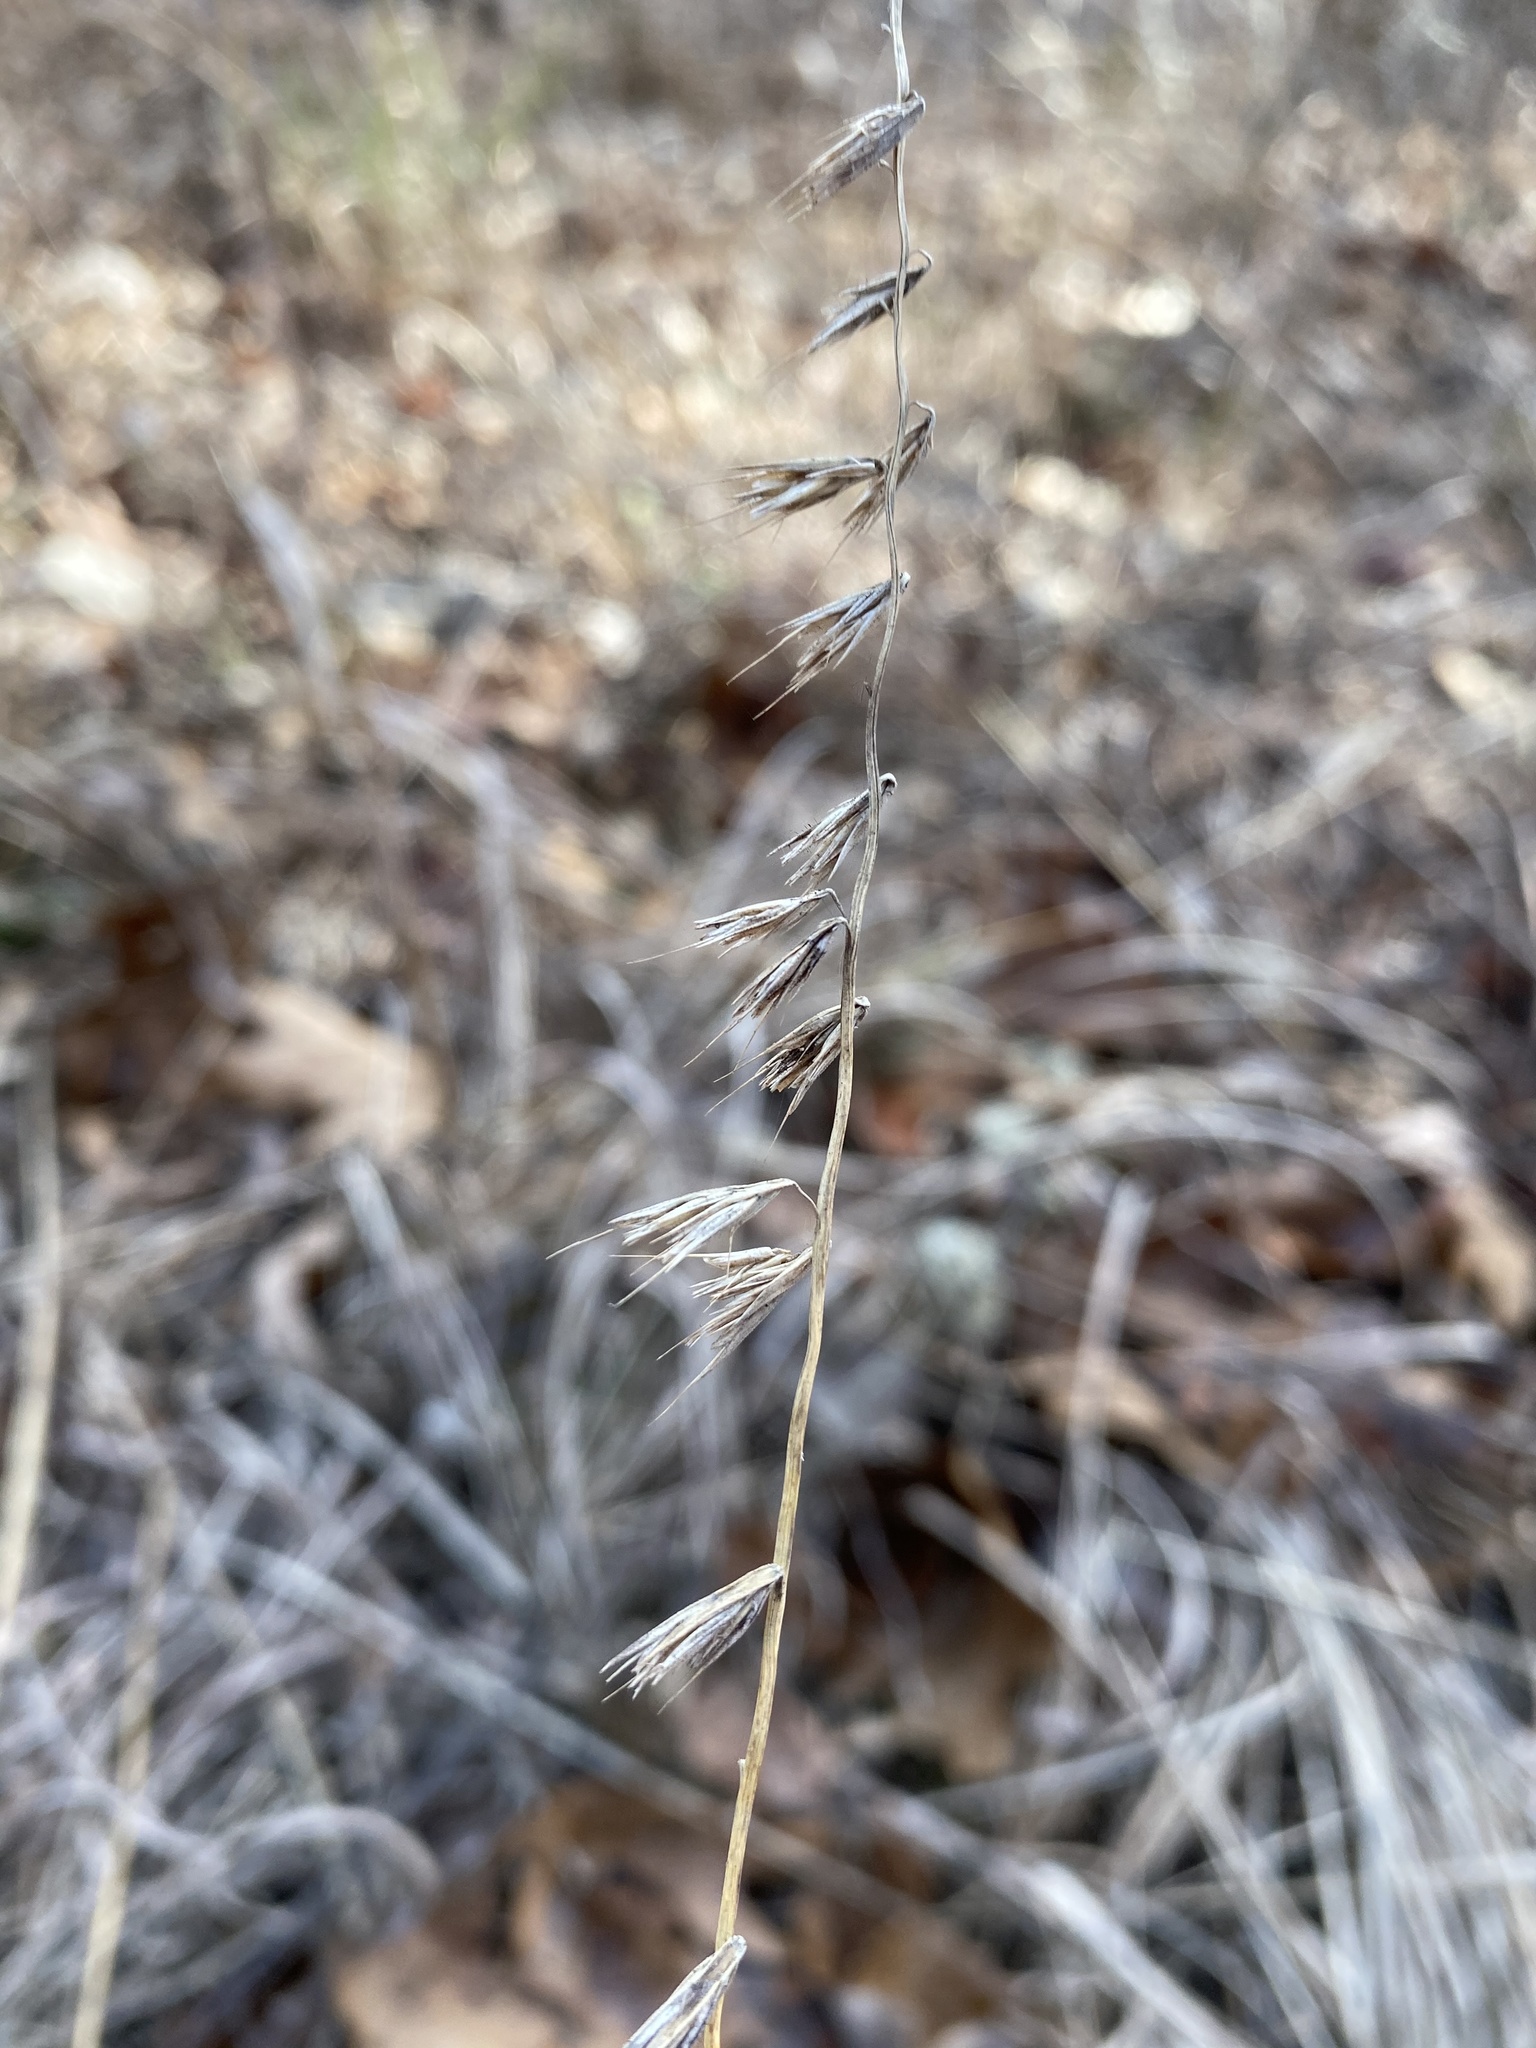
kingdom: Plantae
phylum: Tracheophyta
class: Liliopsida
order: Poales
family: Poaceae
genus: Bouteloua
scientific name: Bouteloua curtipendula
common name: Side-oats grama
